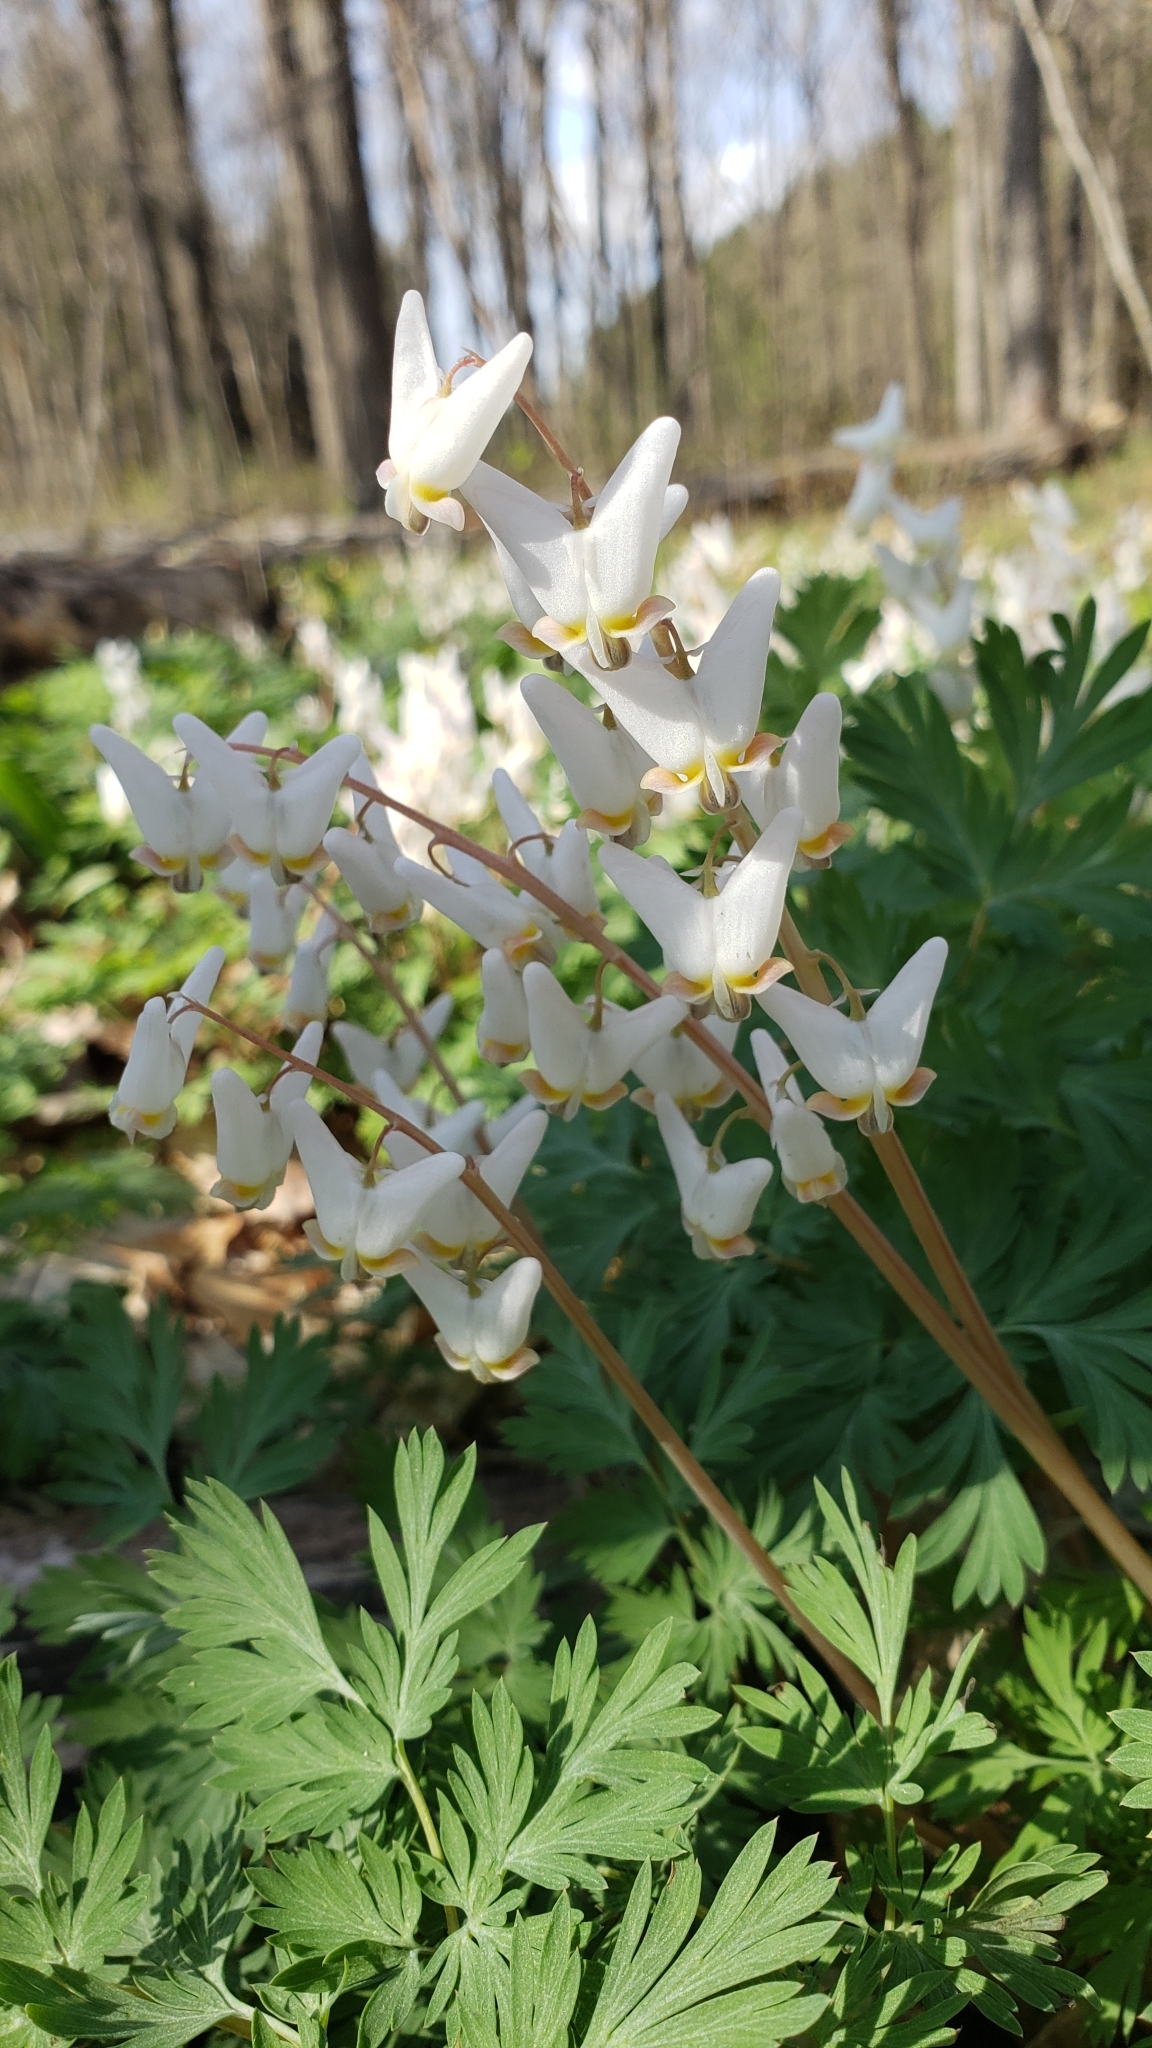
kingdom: Plantae
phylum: Tracheophyta
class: Magnoliopsida
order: Ranunculales
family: Papaveraceae
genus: Dicentra
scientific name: Dicentra cucullaria
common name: Dutchman's breeches
